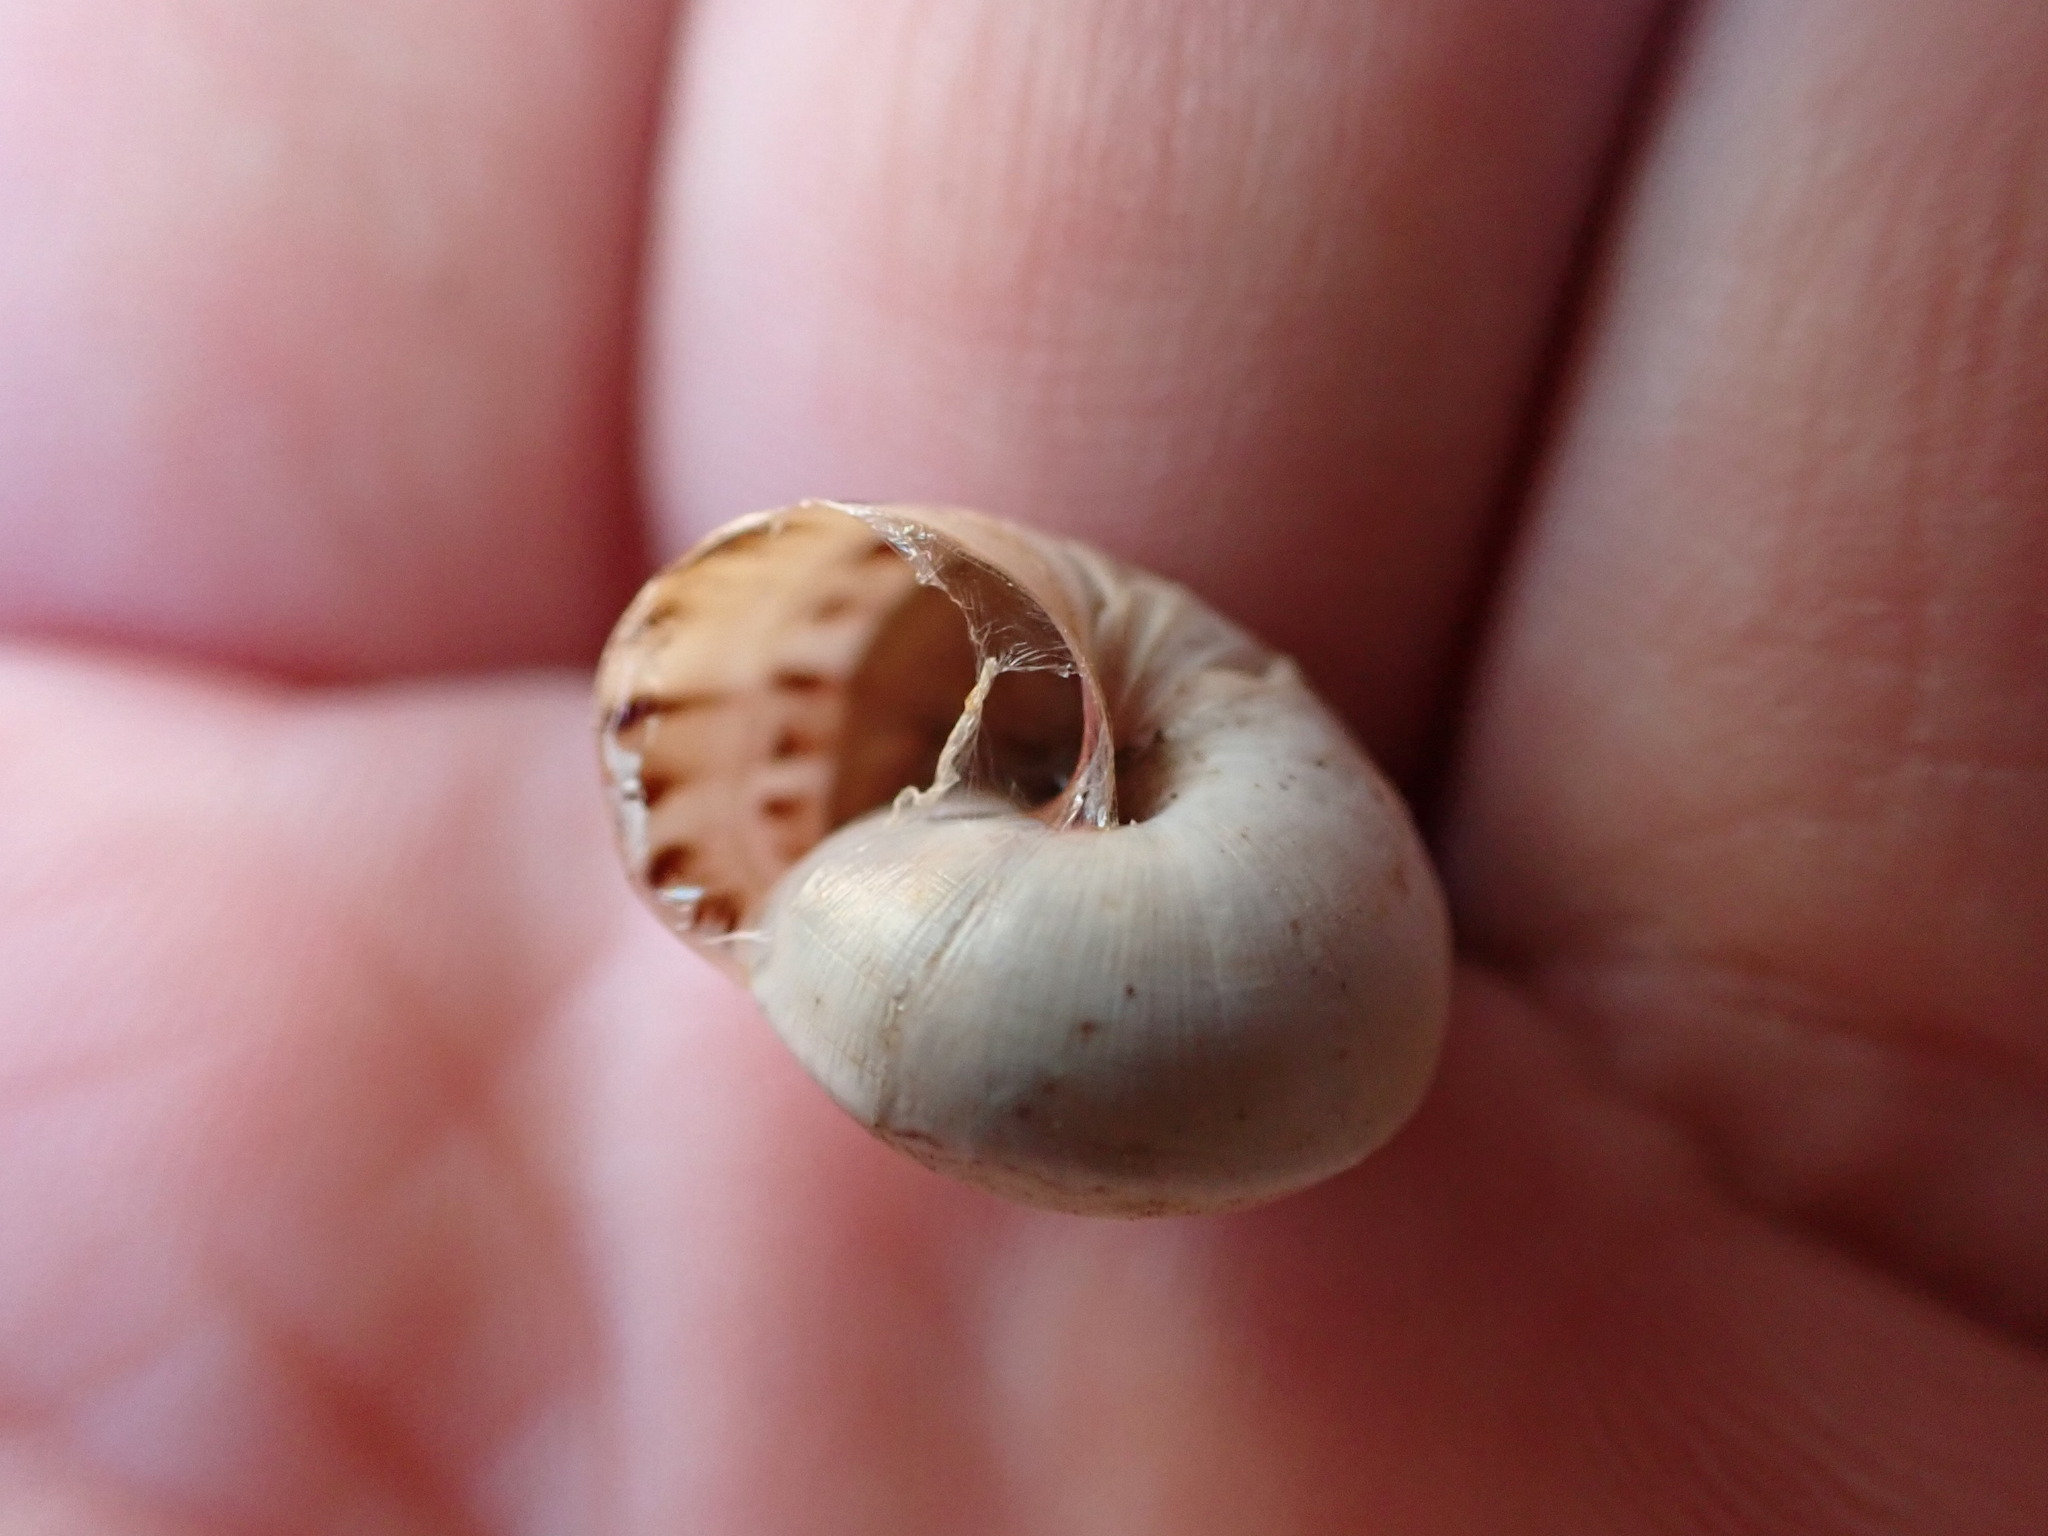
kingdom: Animalia
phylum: Mollusca
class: Gastropoda
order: Stylommatophora
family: Helicidae
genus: Theba
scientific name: Theba pisana
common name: White snail
